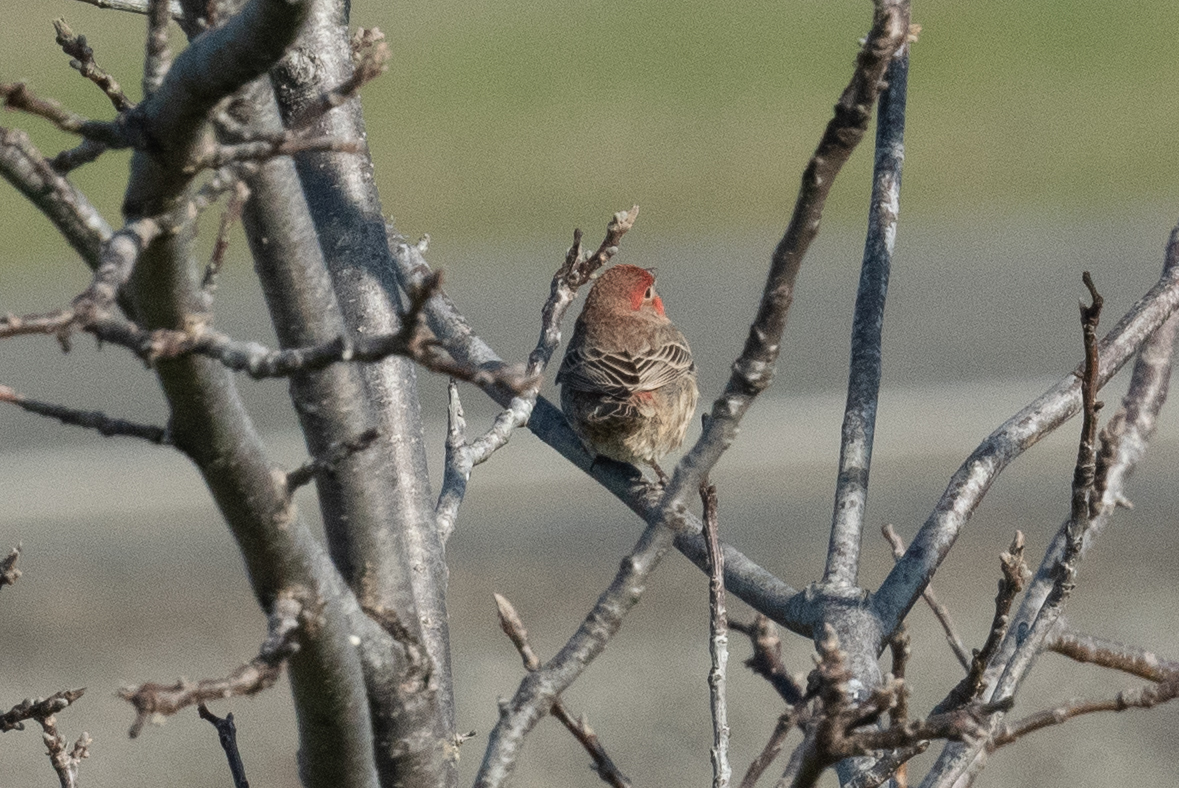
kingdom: Animalia
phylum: Chordata
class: Aves
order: Passeriformes
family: Fringillidae
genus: Haemorhous
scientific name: Haemorhous mexicanus
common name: House finch
